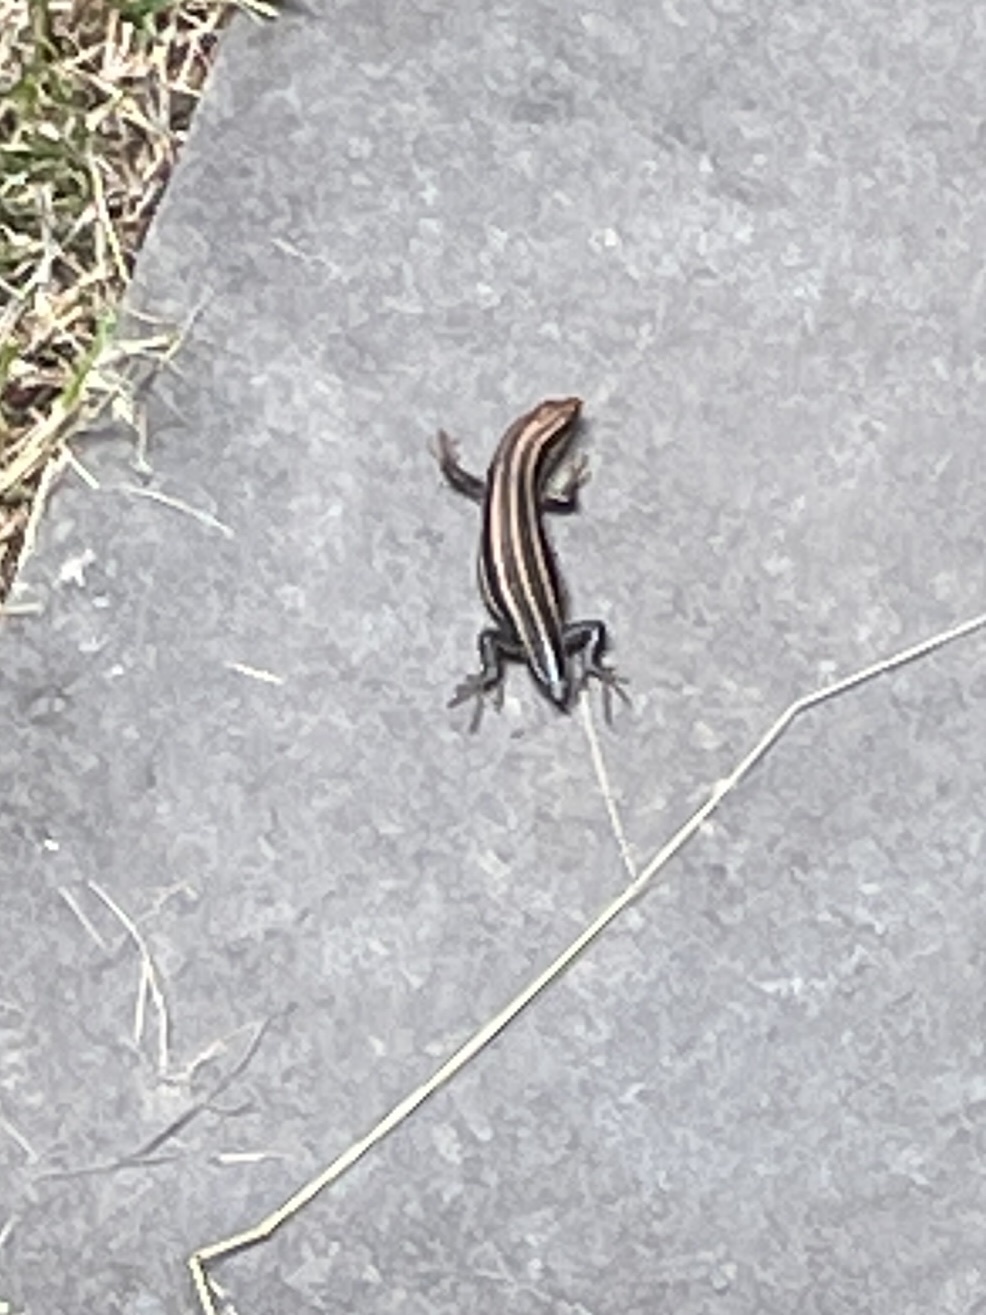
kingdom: Animalia
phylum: Chordata
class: Squamata
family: Scincidae
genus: Plestiodon
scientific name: Plestiodon fasciatus
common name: Five-lined skink
